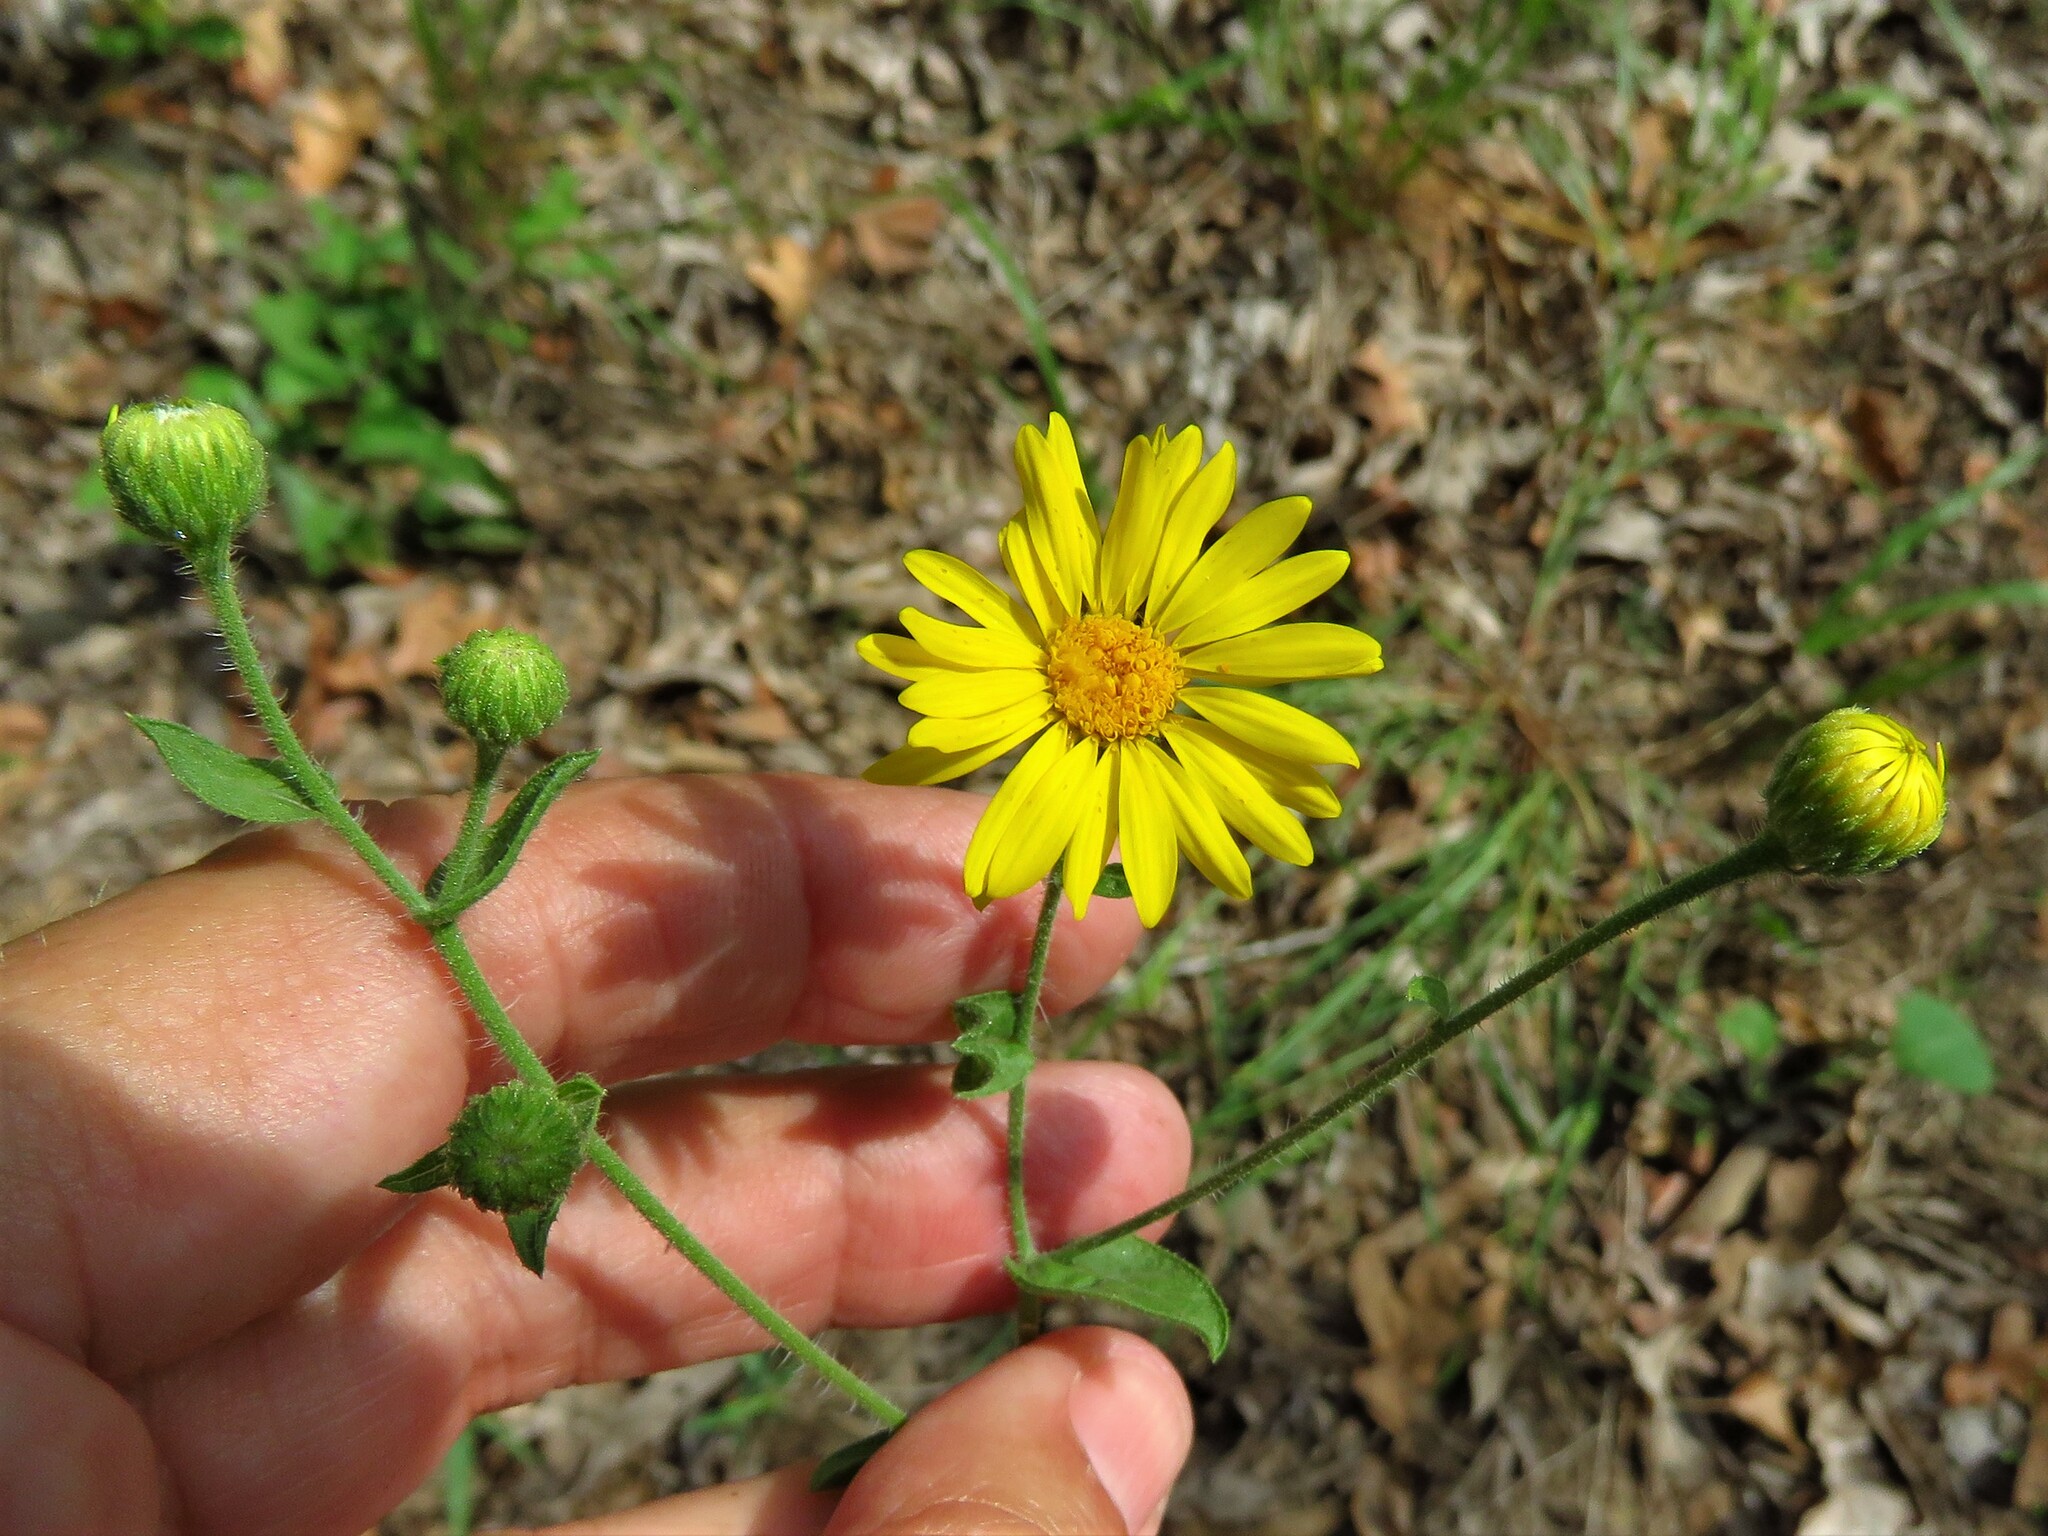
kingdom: Plantae
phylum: Tracheophyta
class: Magnoliopsida
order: Asterales
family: Asteraceae
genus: Heterotheca
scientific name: Heterotheca subaxillaris
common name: Camphorweed
